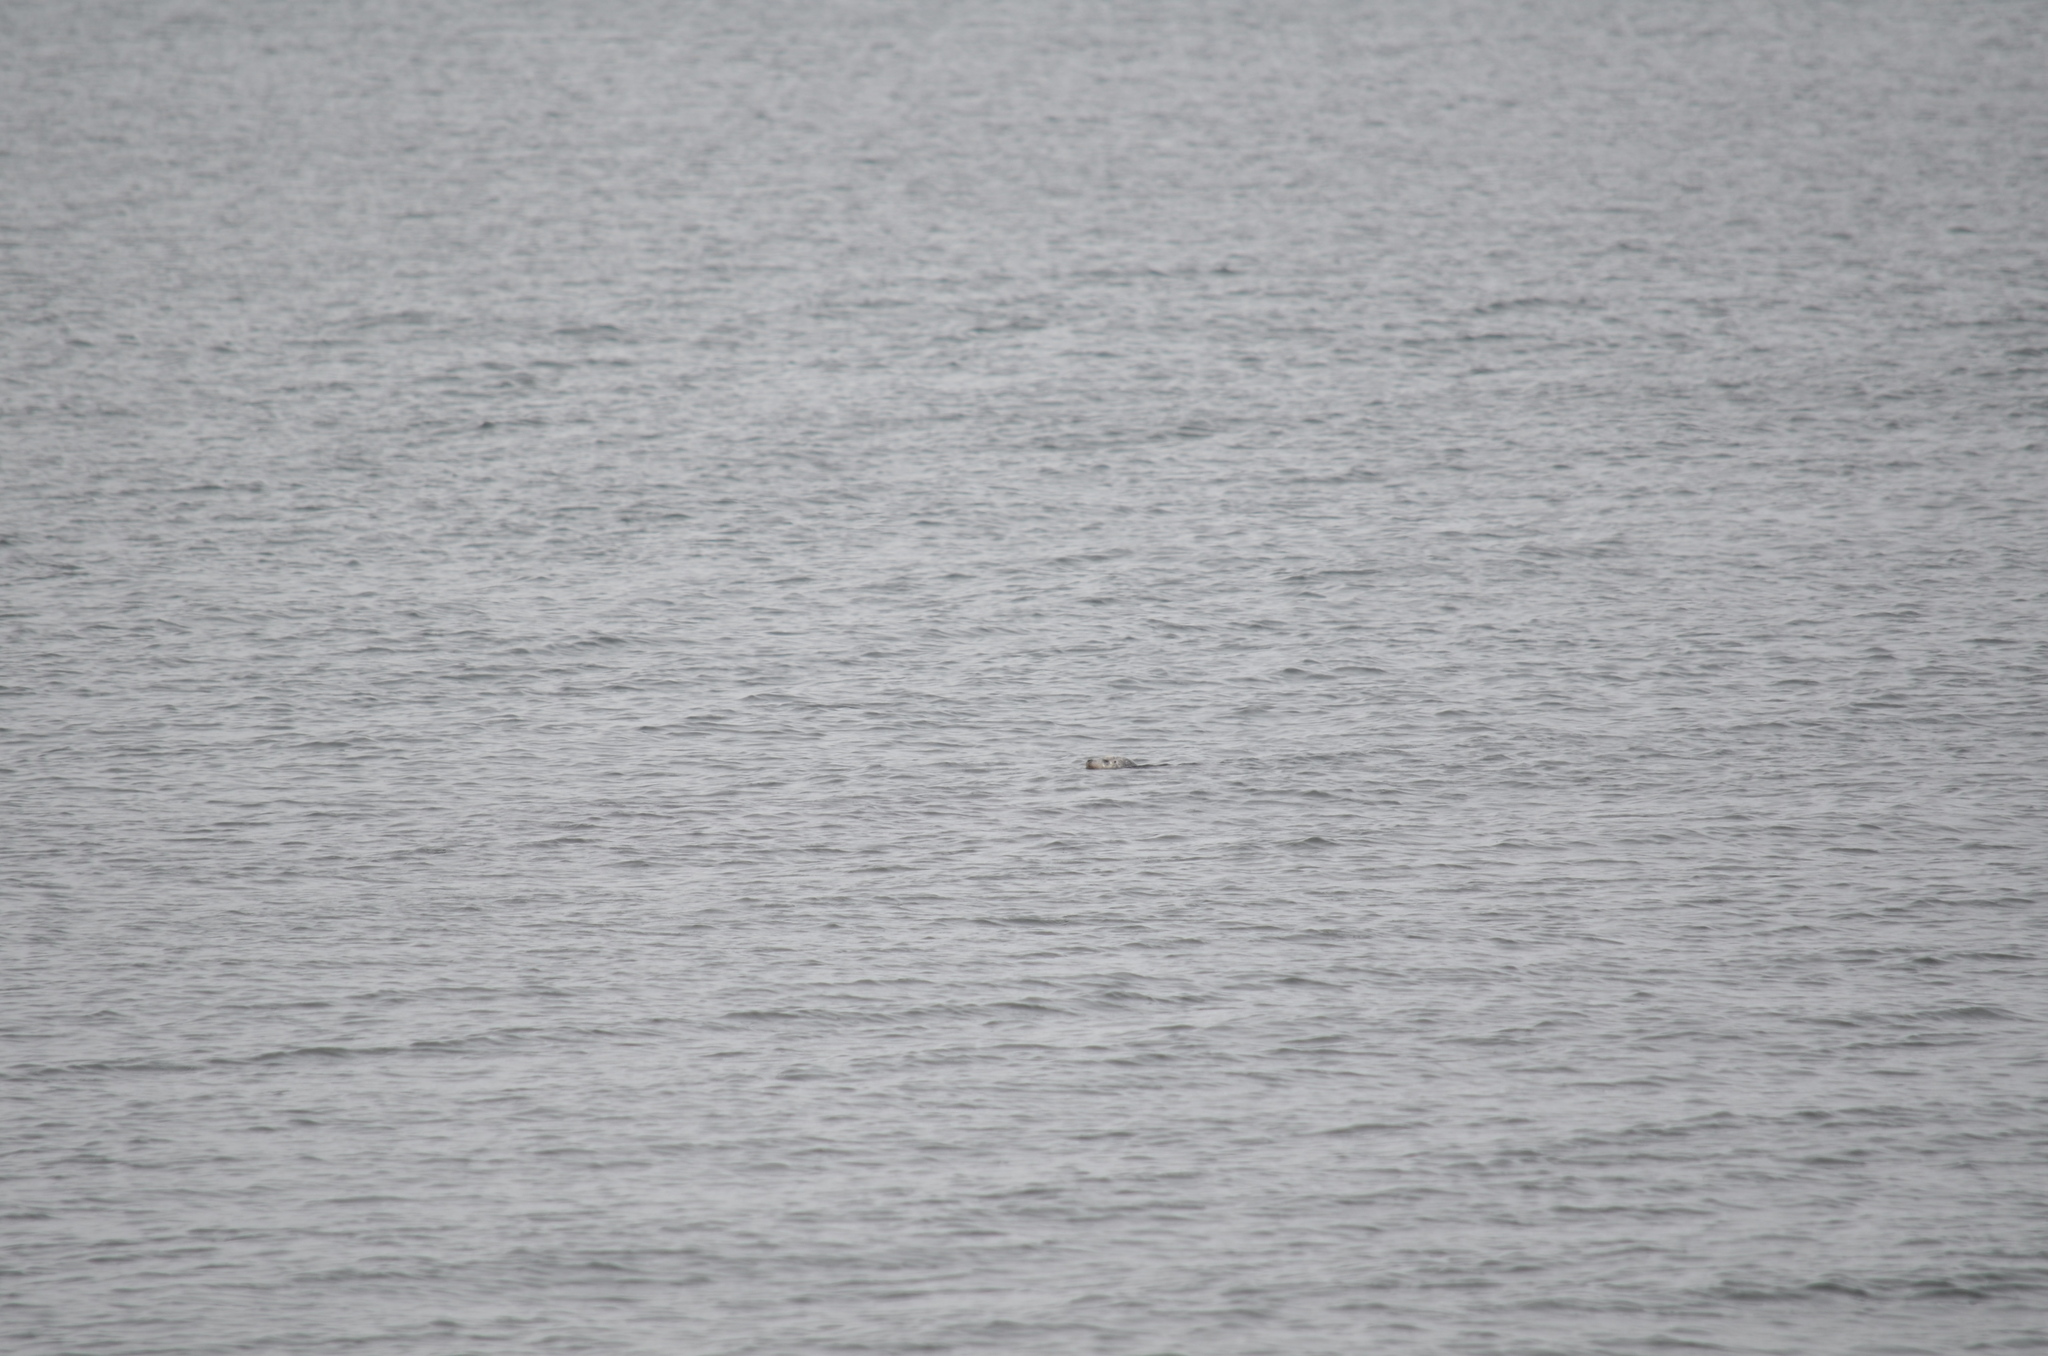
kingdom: Animalia
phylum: Chordata
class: Mammalia
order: Carnivora
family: Phocidae
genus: Phoca
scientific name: Phoca vitulina
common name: Harbor seal
